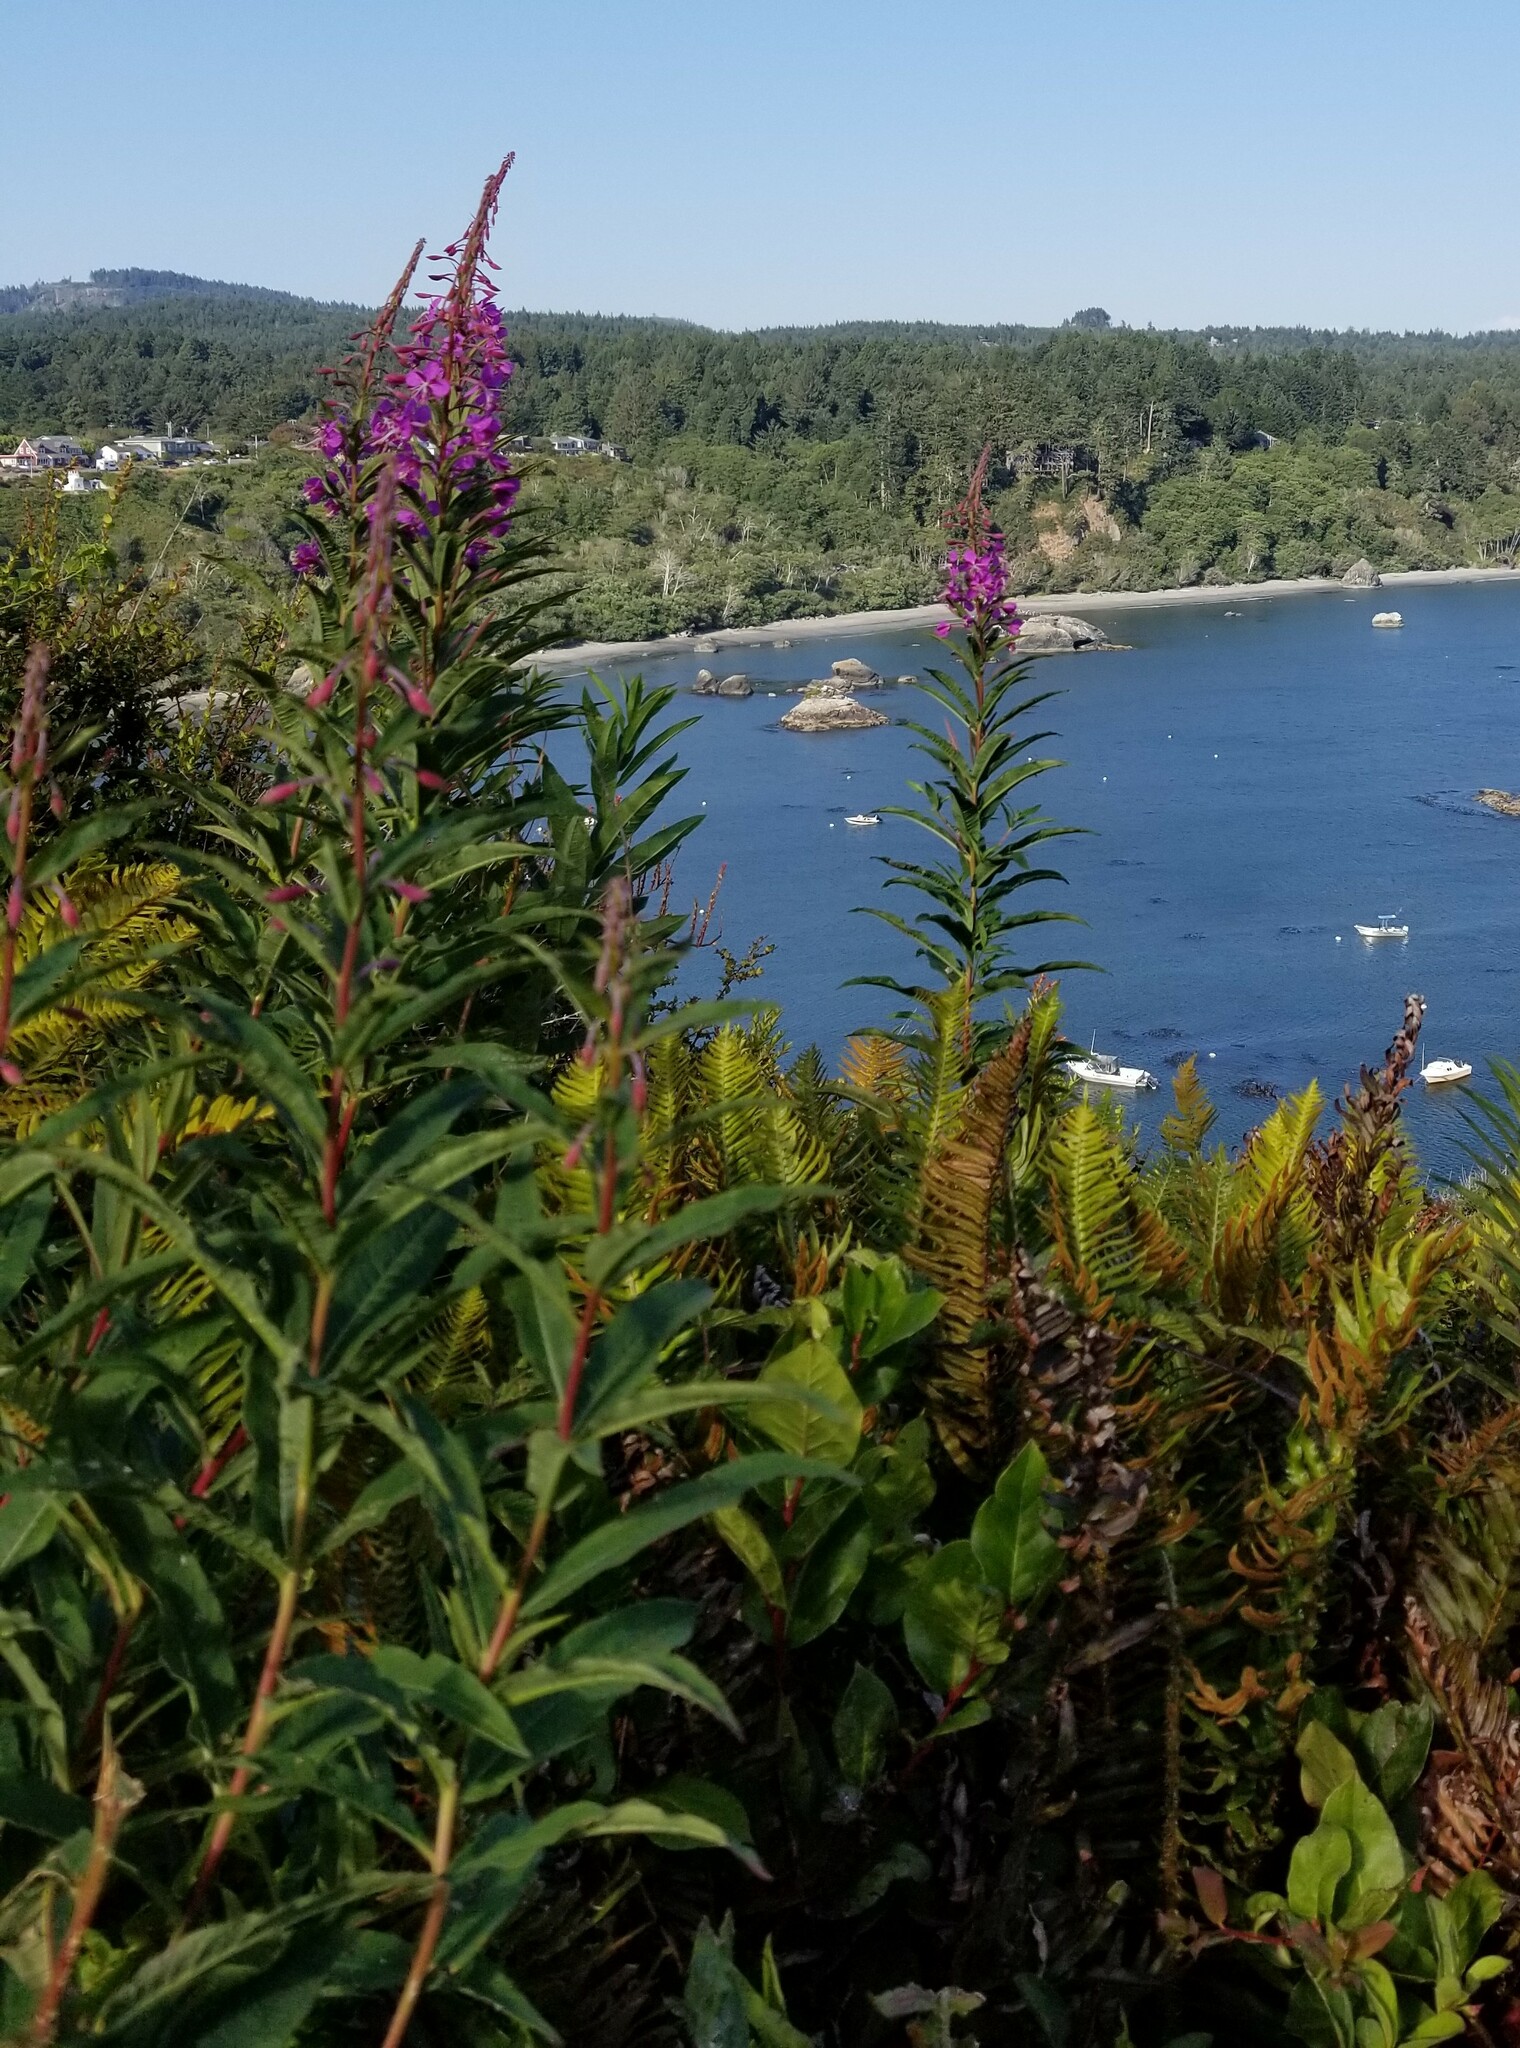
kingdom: Plantae
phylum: Tracheophyta
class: Magnoliopsida
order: Myrtales
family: Onagraceae
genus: Chamaenerion
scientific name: Chamaenerion angustifolium
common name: Fireweed
